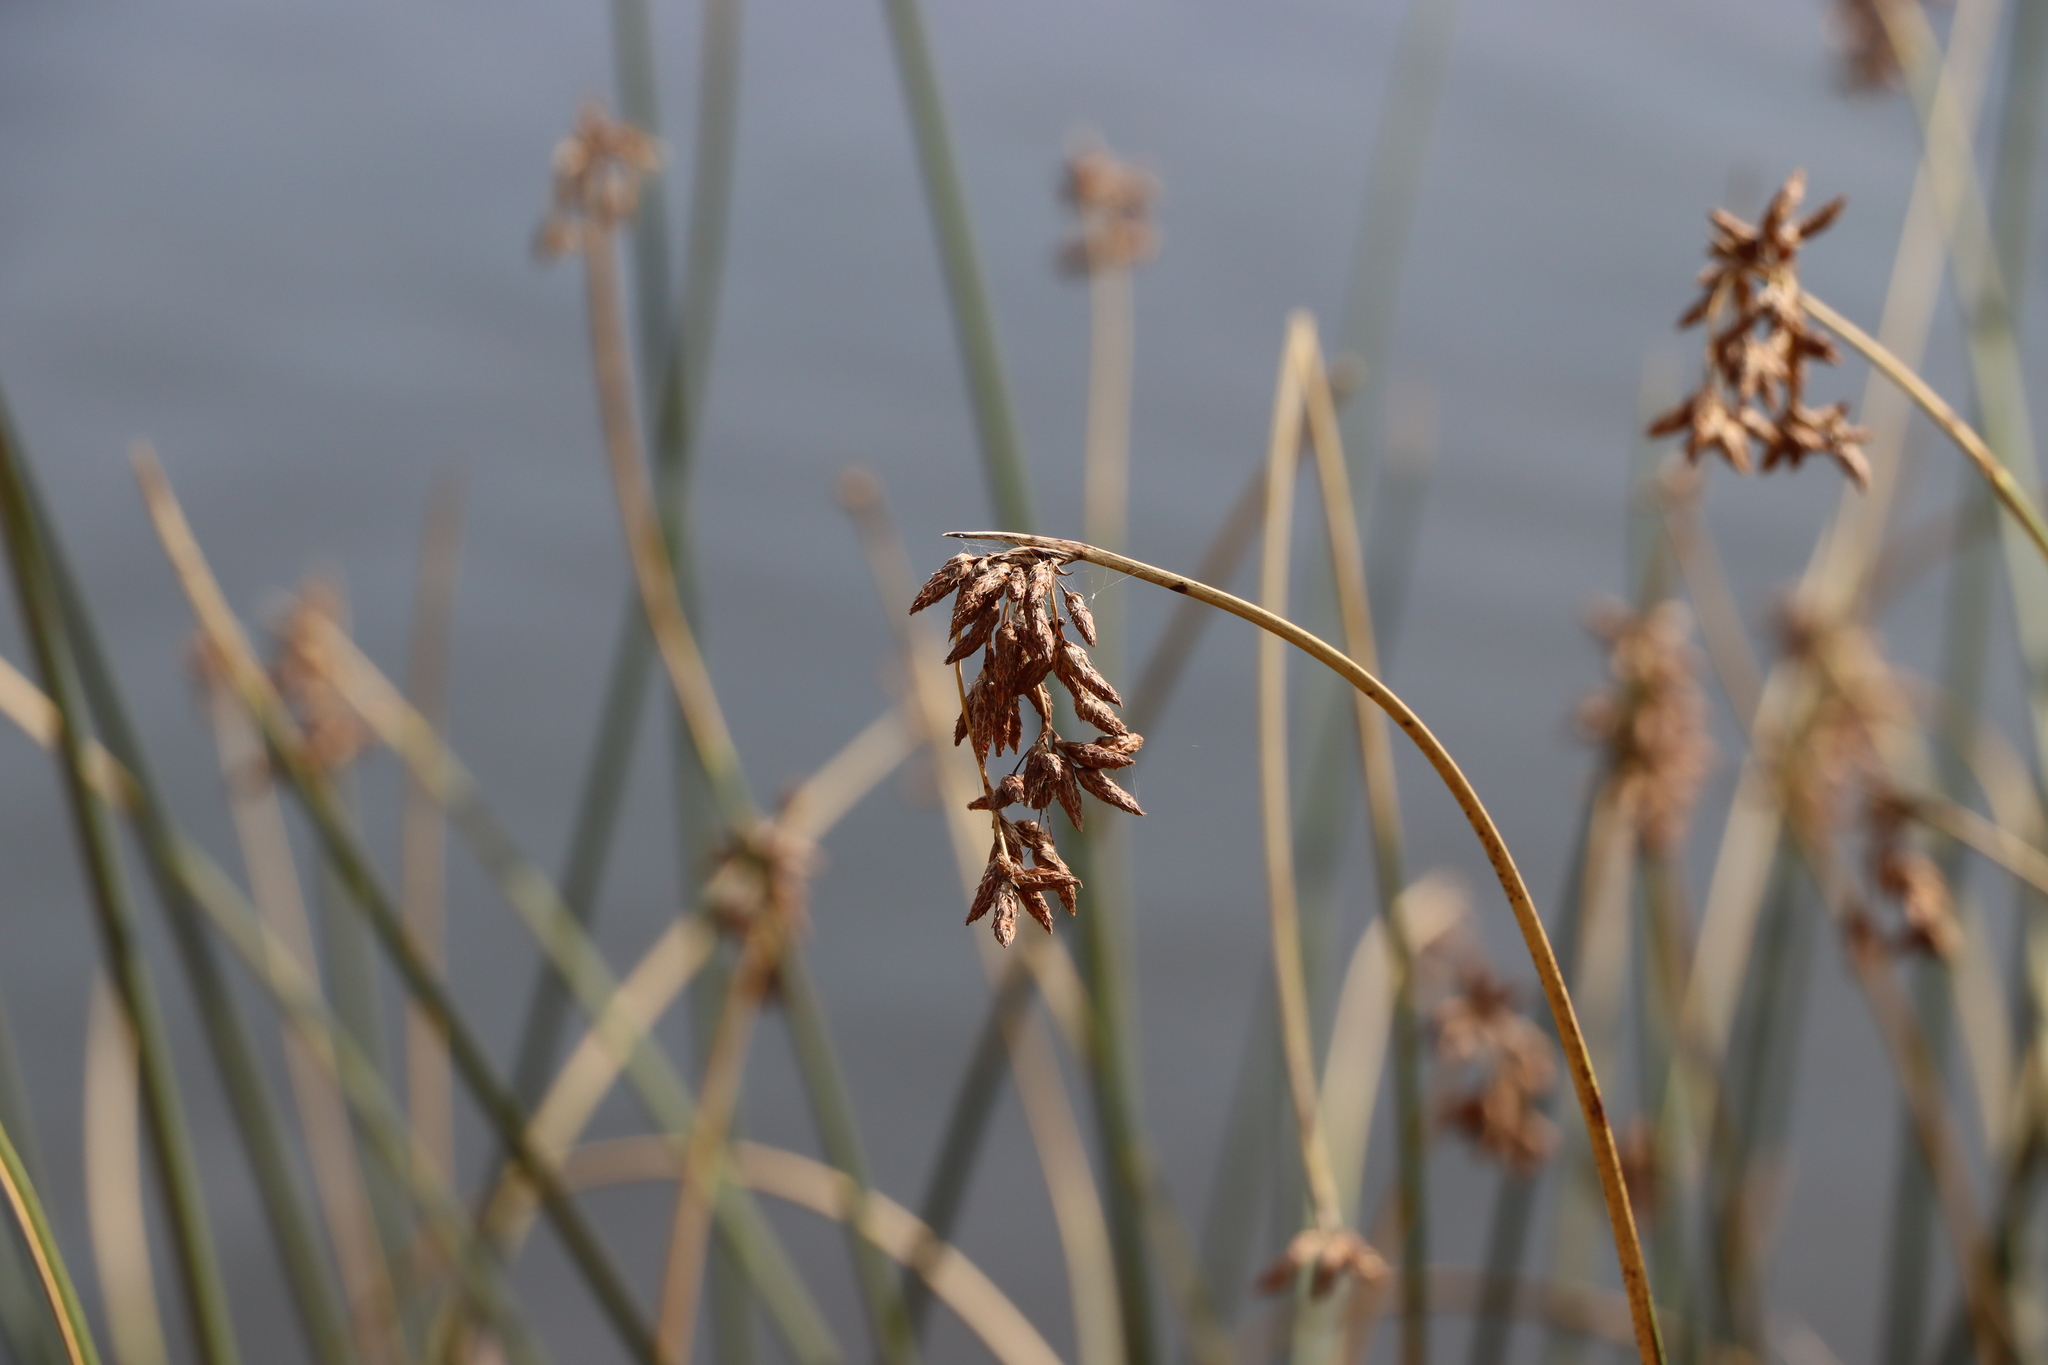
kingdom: Plantae
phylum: Tracheophyta
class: Liliopsida
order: Poales
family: Cyperaceae
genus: Schoenoplectus
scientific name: Schoenoplectus californicus
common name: California bulrush
